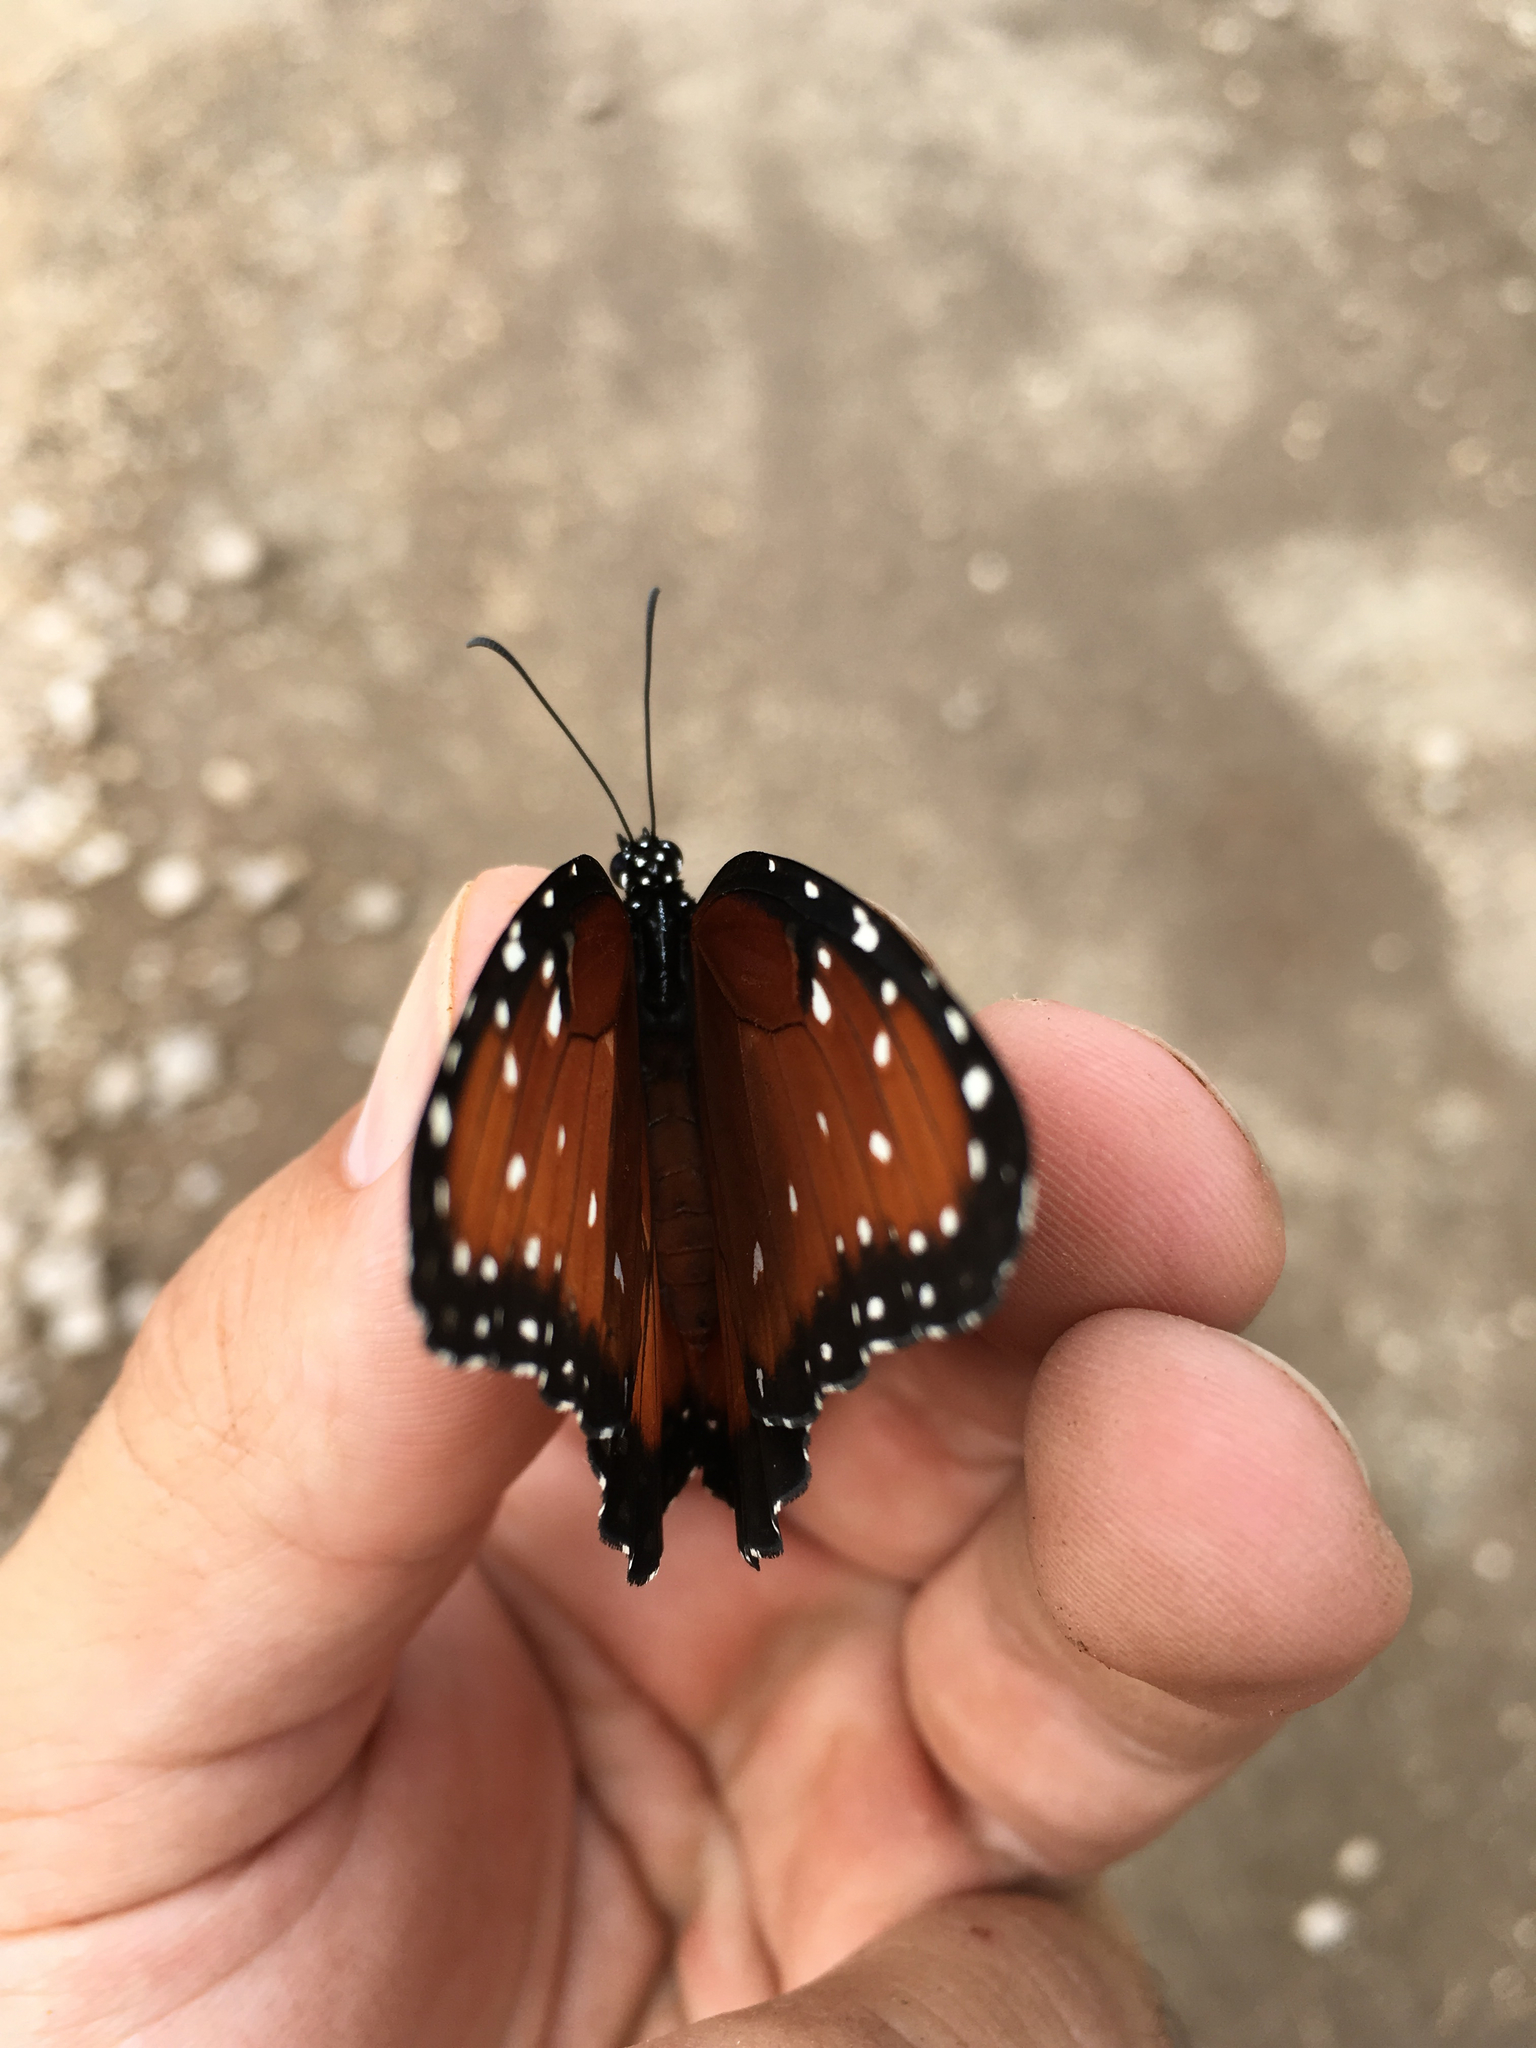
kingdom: Animalia
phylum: Arthropoda
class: Insecta
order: Lepidoptera
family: Nymphalidae
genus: Danaus
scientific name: Danaus gilippus
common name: Queen
